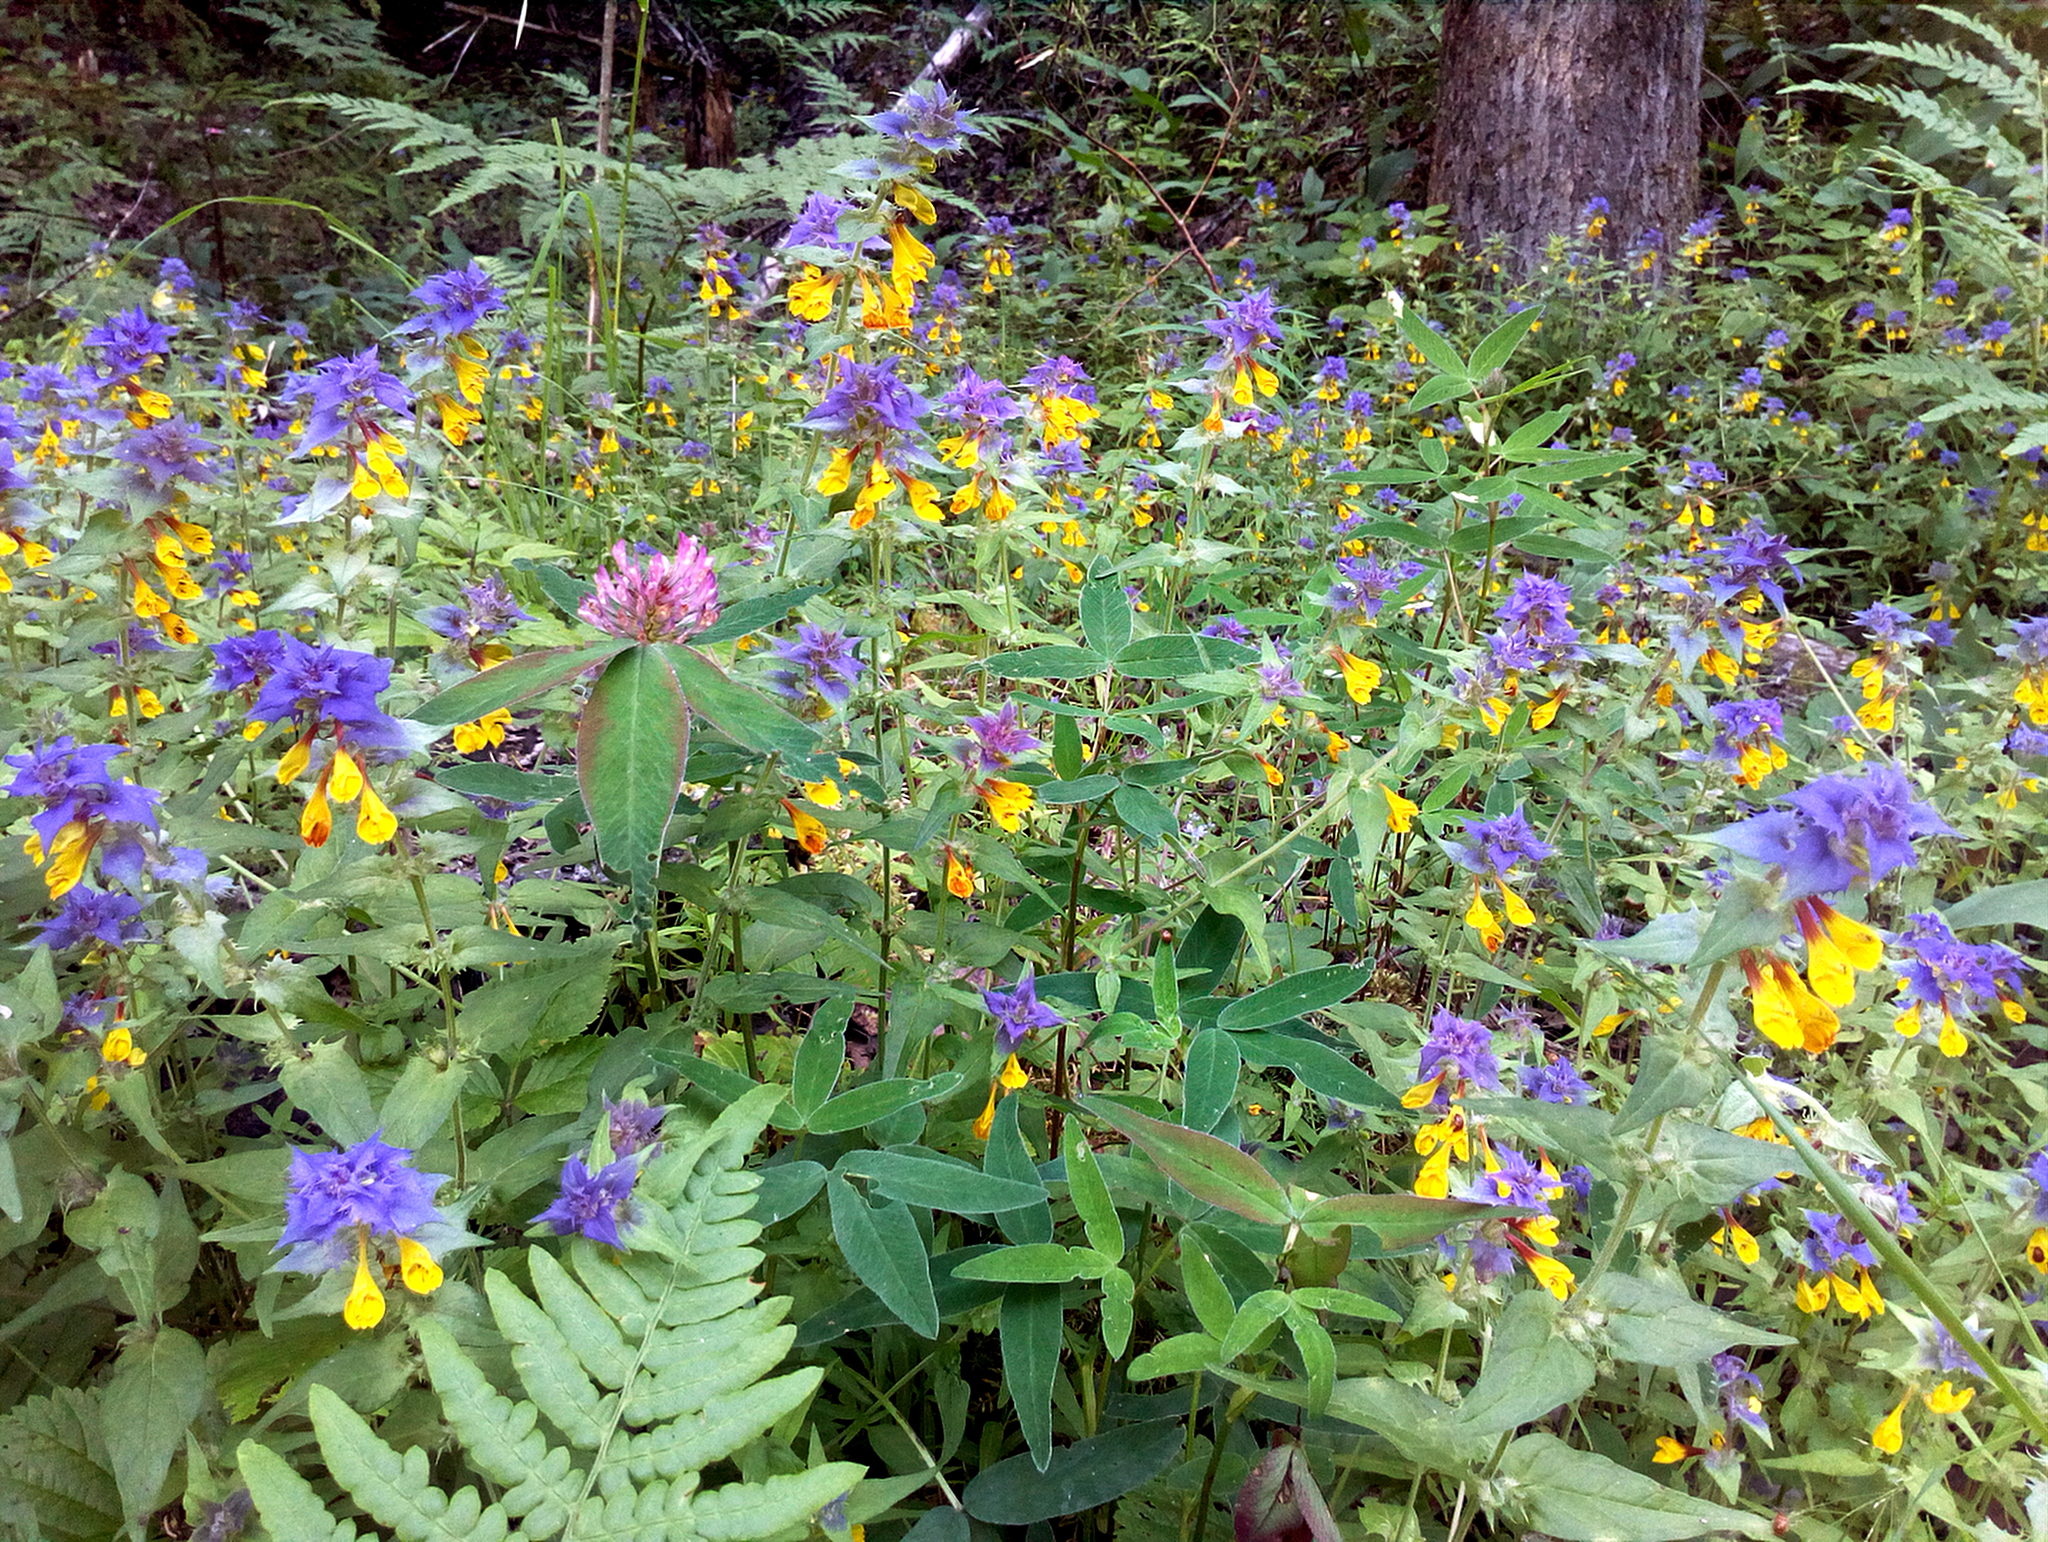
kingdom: Plantae
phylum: Tracheophyta
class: Magnoliopsida
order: Lamiales
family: Orobanchaceae
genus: Melampyrum
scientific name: Melampyrum nemorosum
